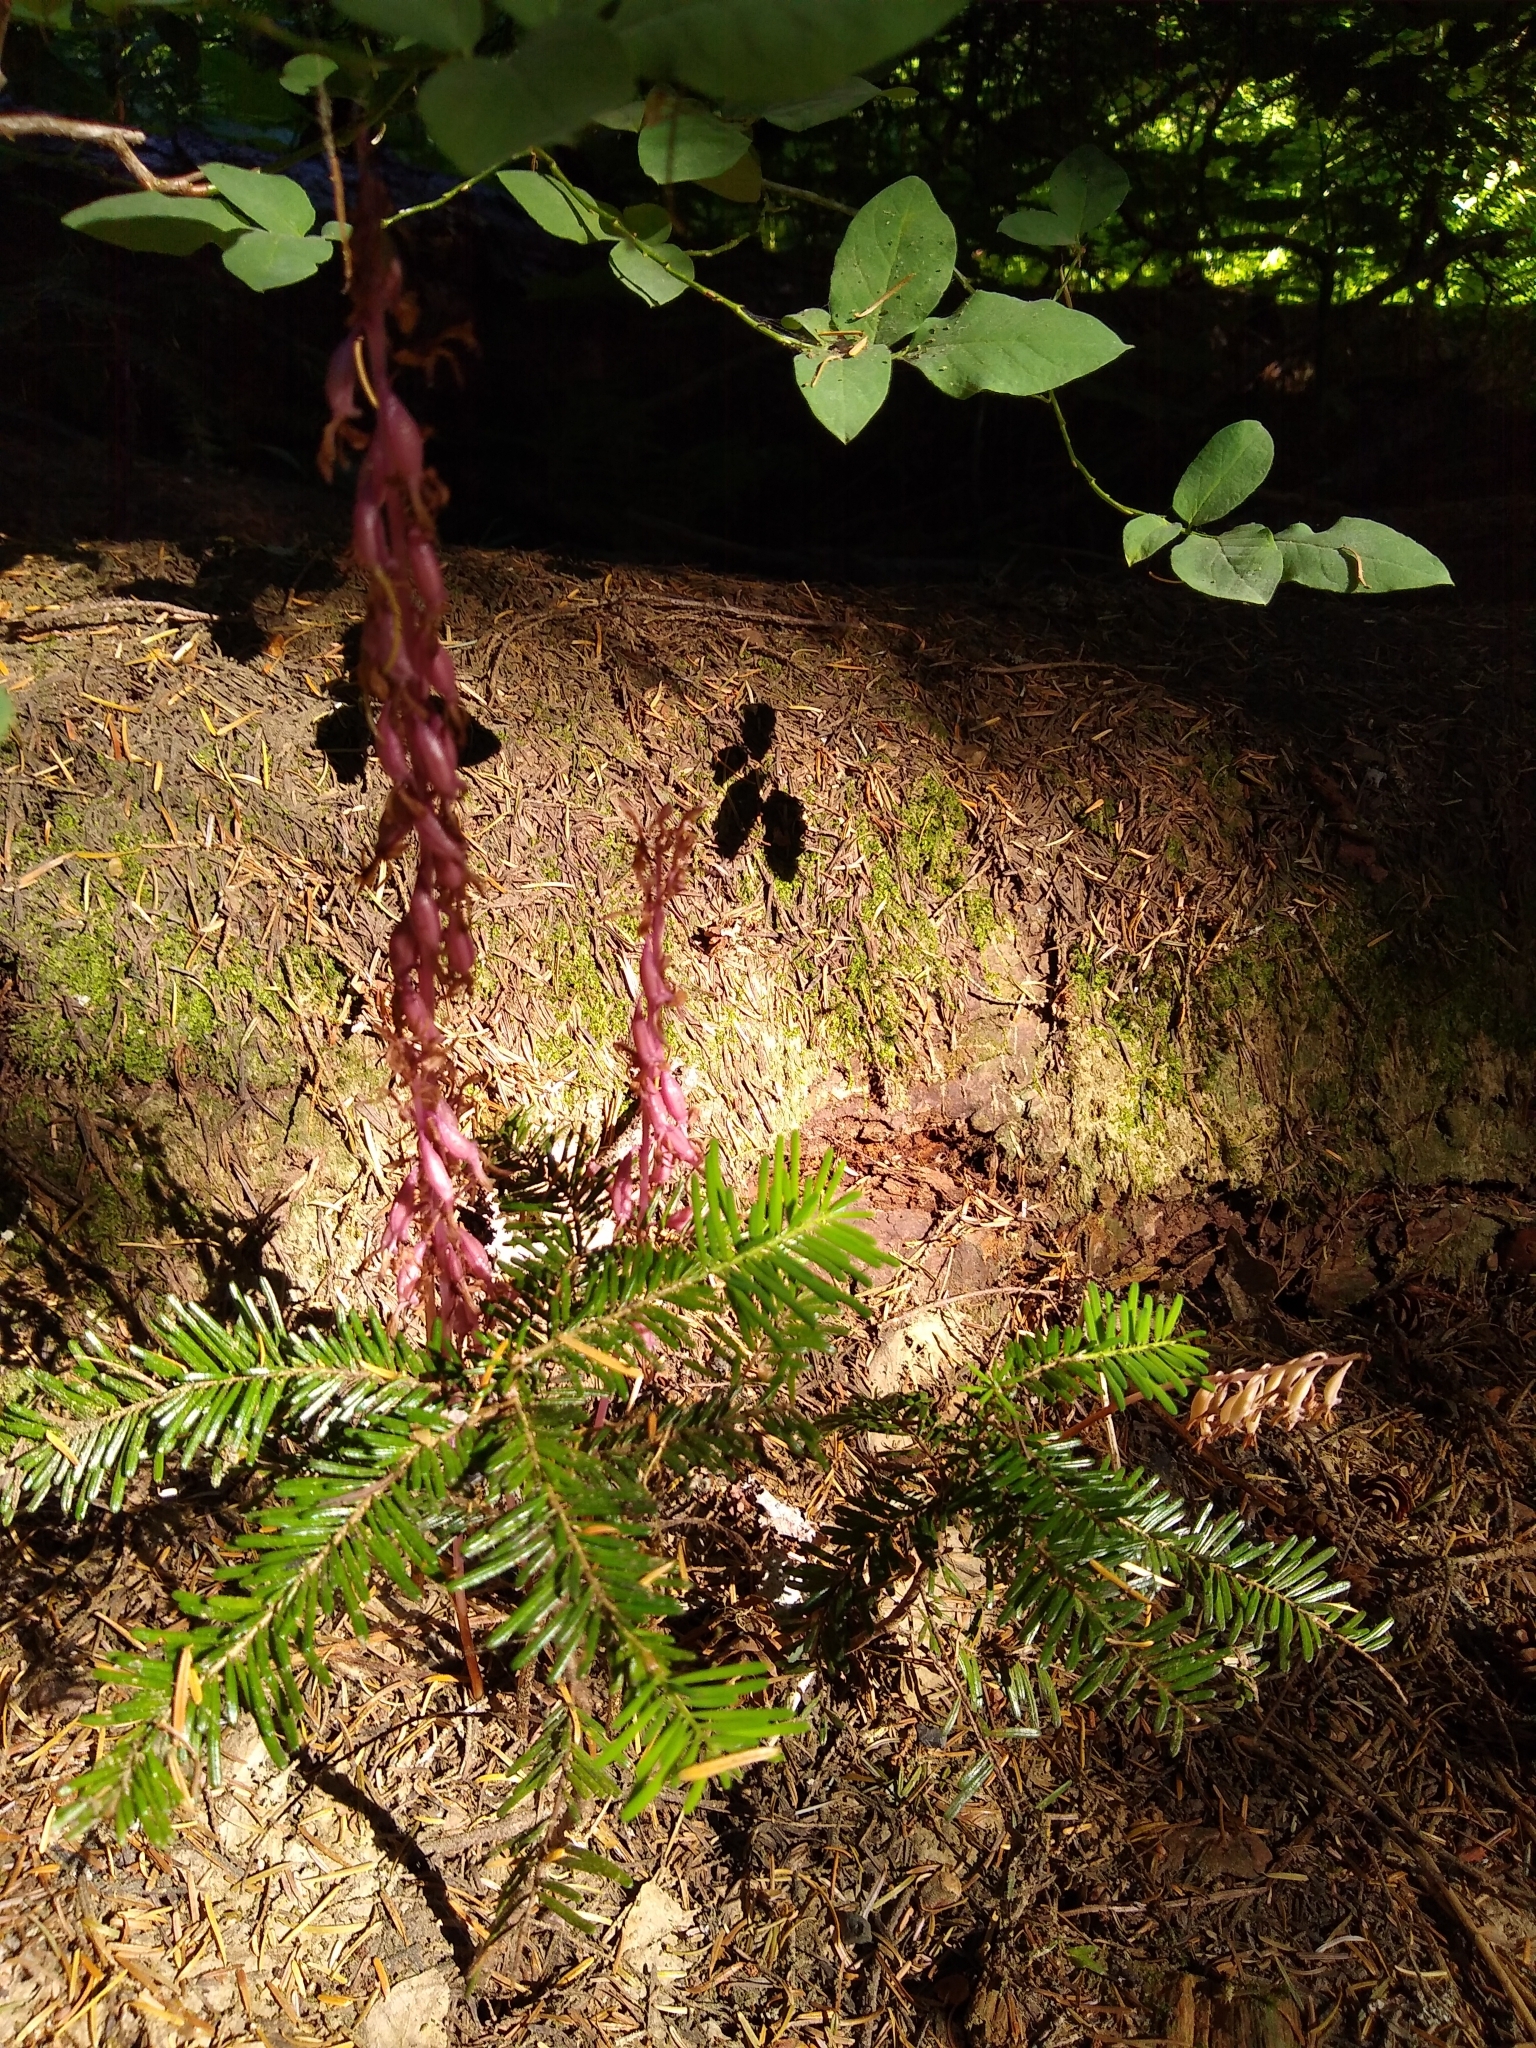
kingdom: Plantae
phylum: Tracheophyta
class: Liliopsida
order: Asparagales
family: Orchidaceae
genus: Corallorhiza
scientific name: Corallorhiza mertensiana
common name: Pacific coralroot
